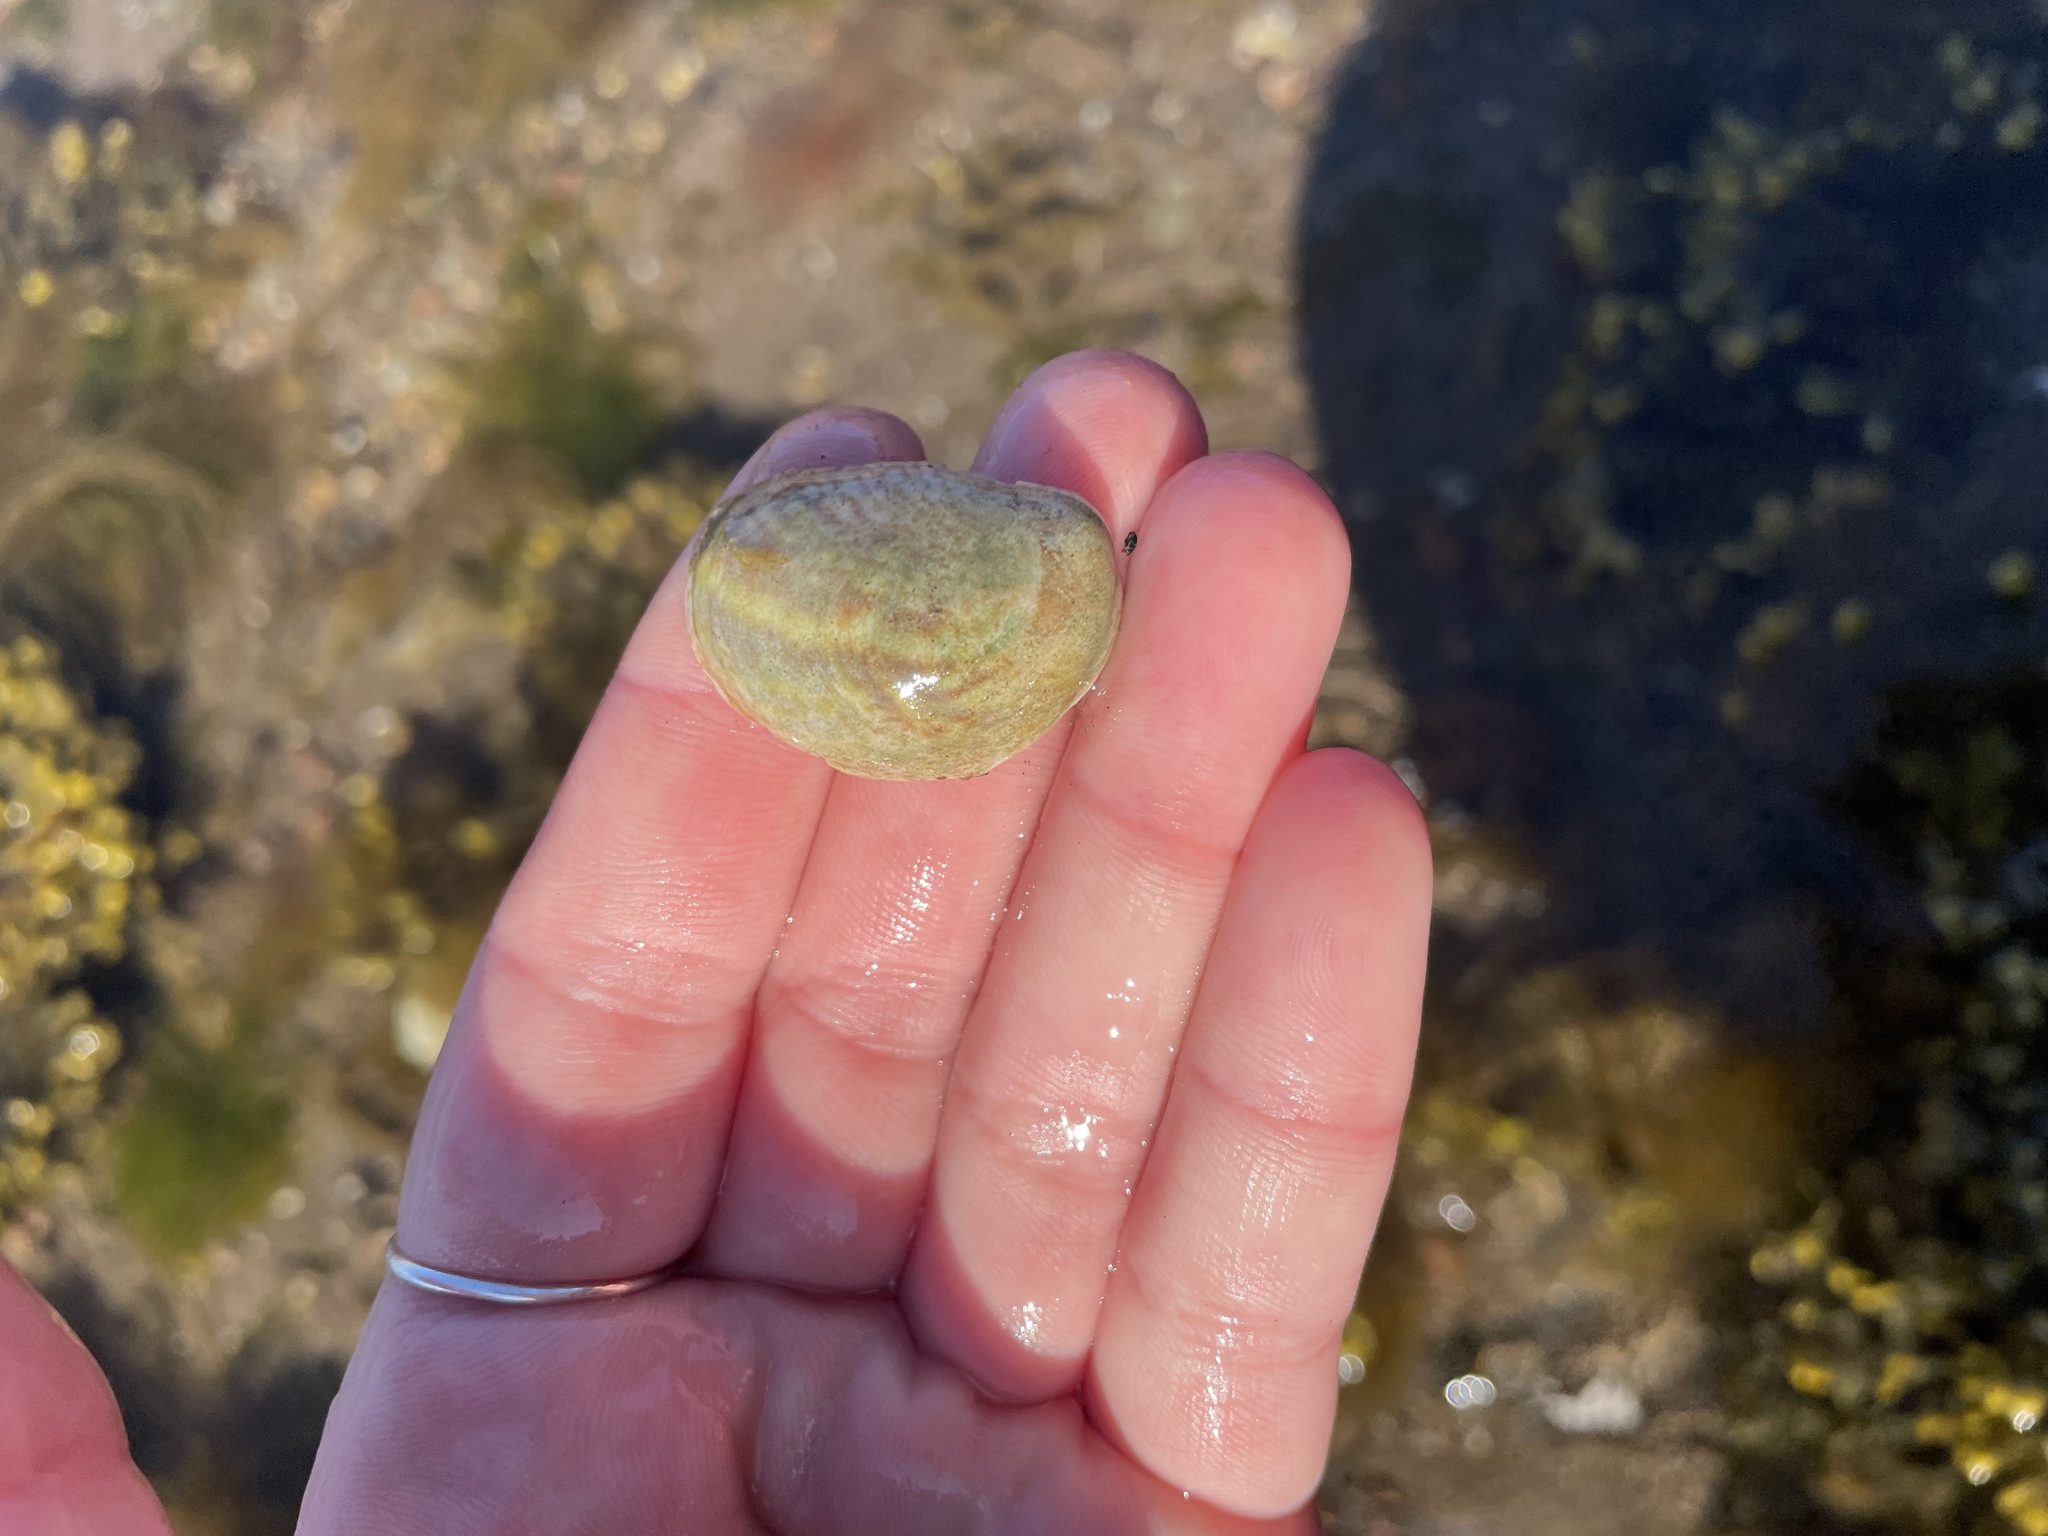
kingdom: Animalia
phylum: Mollusca
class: Gastropoda
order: Littorinimorpha
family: Calyptraeidae
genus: Crepidula
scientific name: Crepidula fornicata
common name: Slipper limpet
